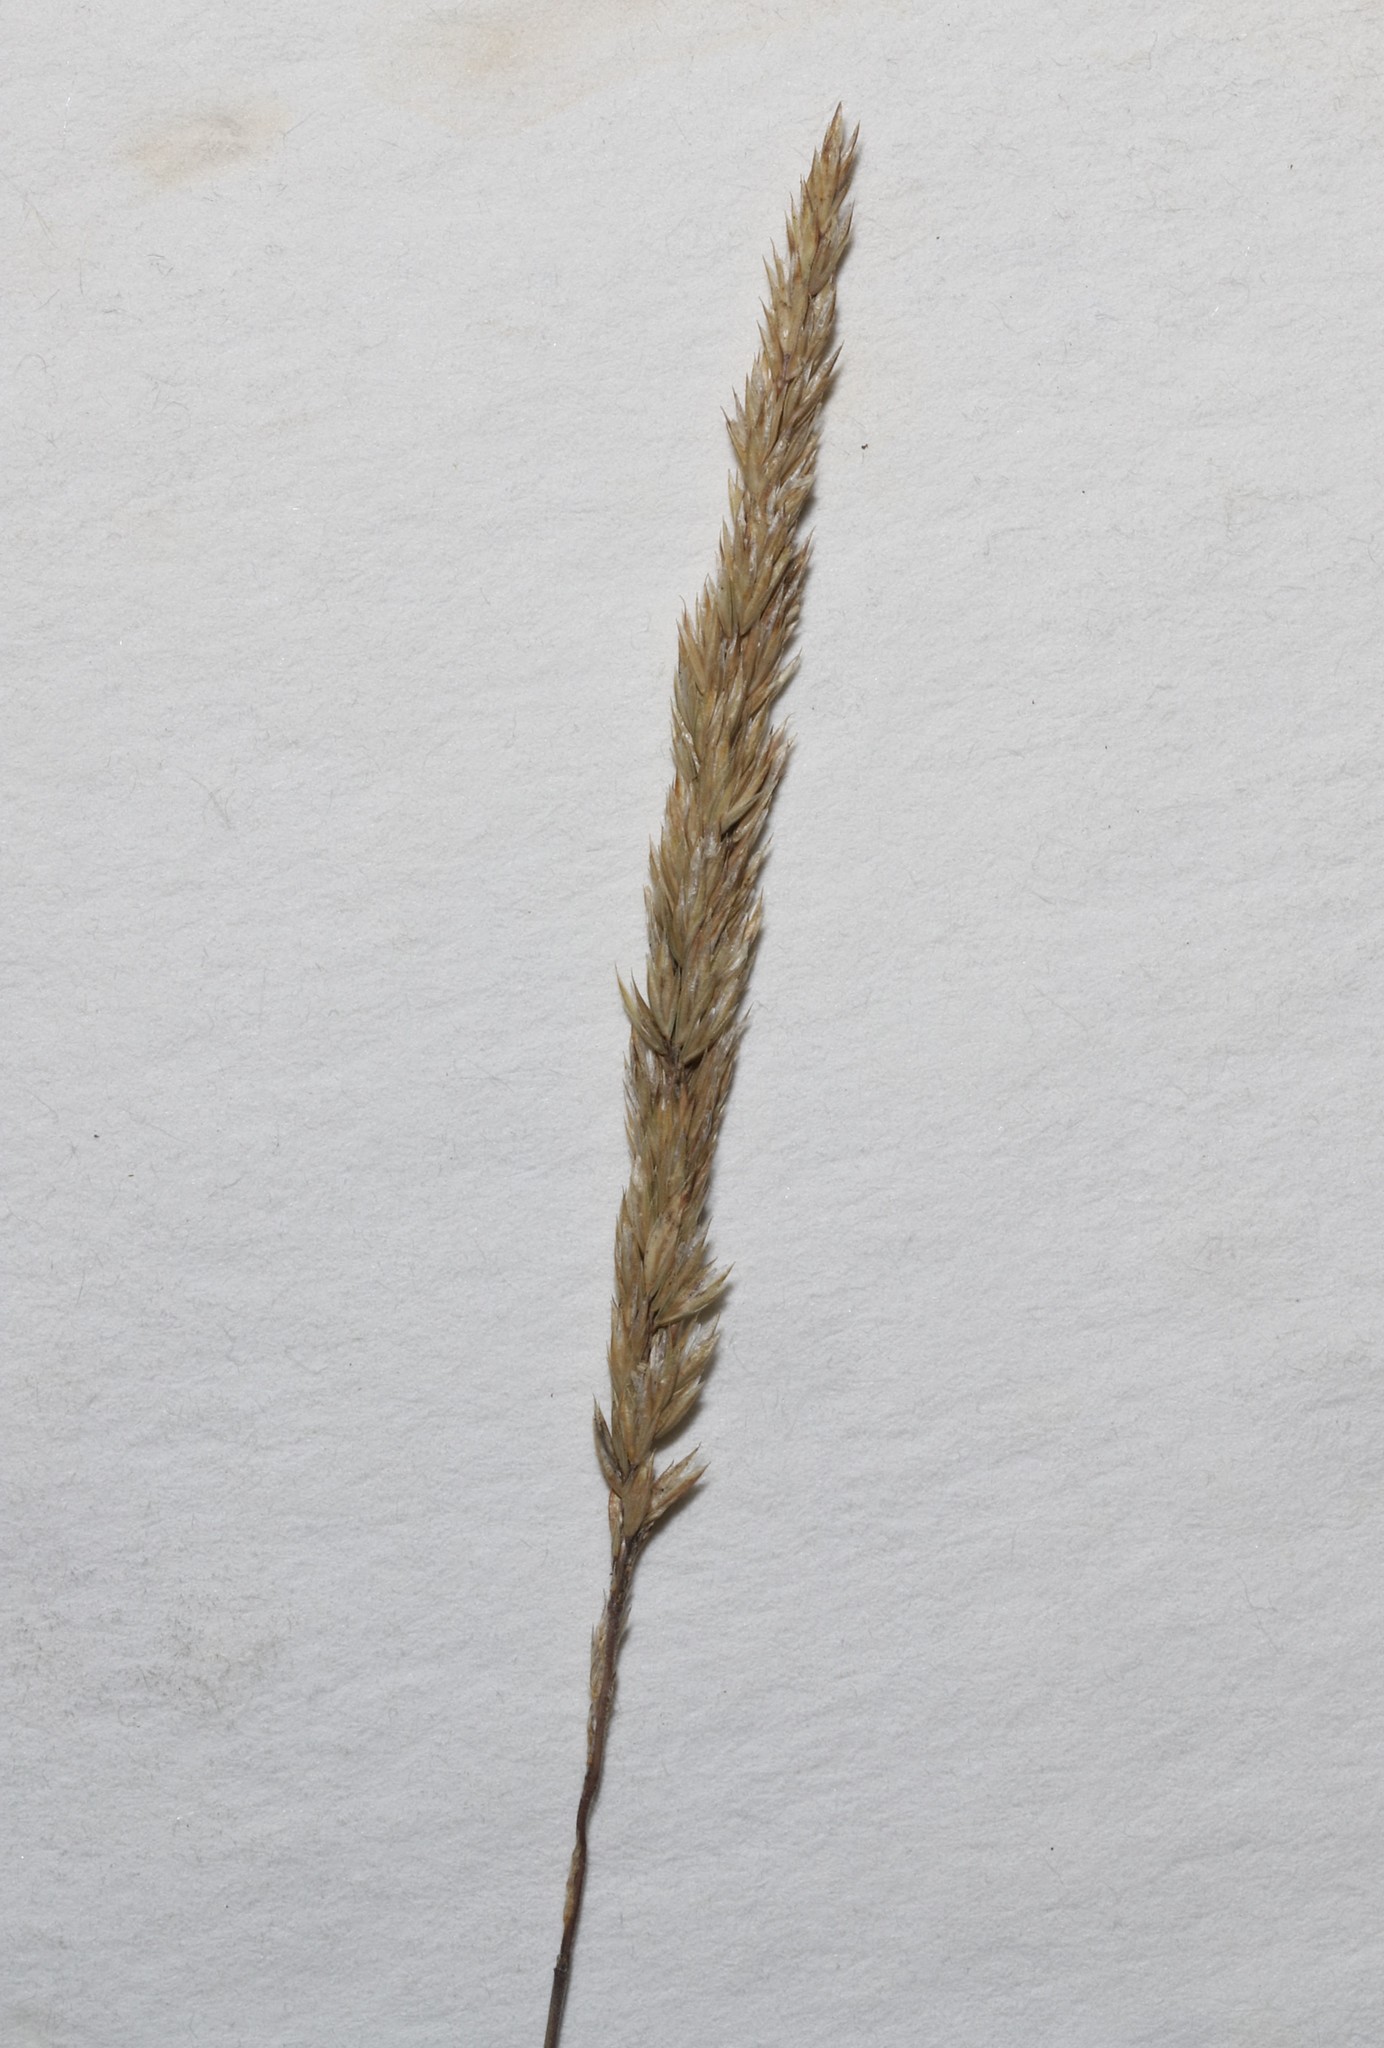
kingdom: Plantae
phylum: Tracheophyta
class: Liliopsida
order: Poales
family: Poaceae
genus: Koeleria
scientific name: Koeleria macrantha
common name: Crested hair-grass
